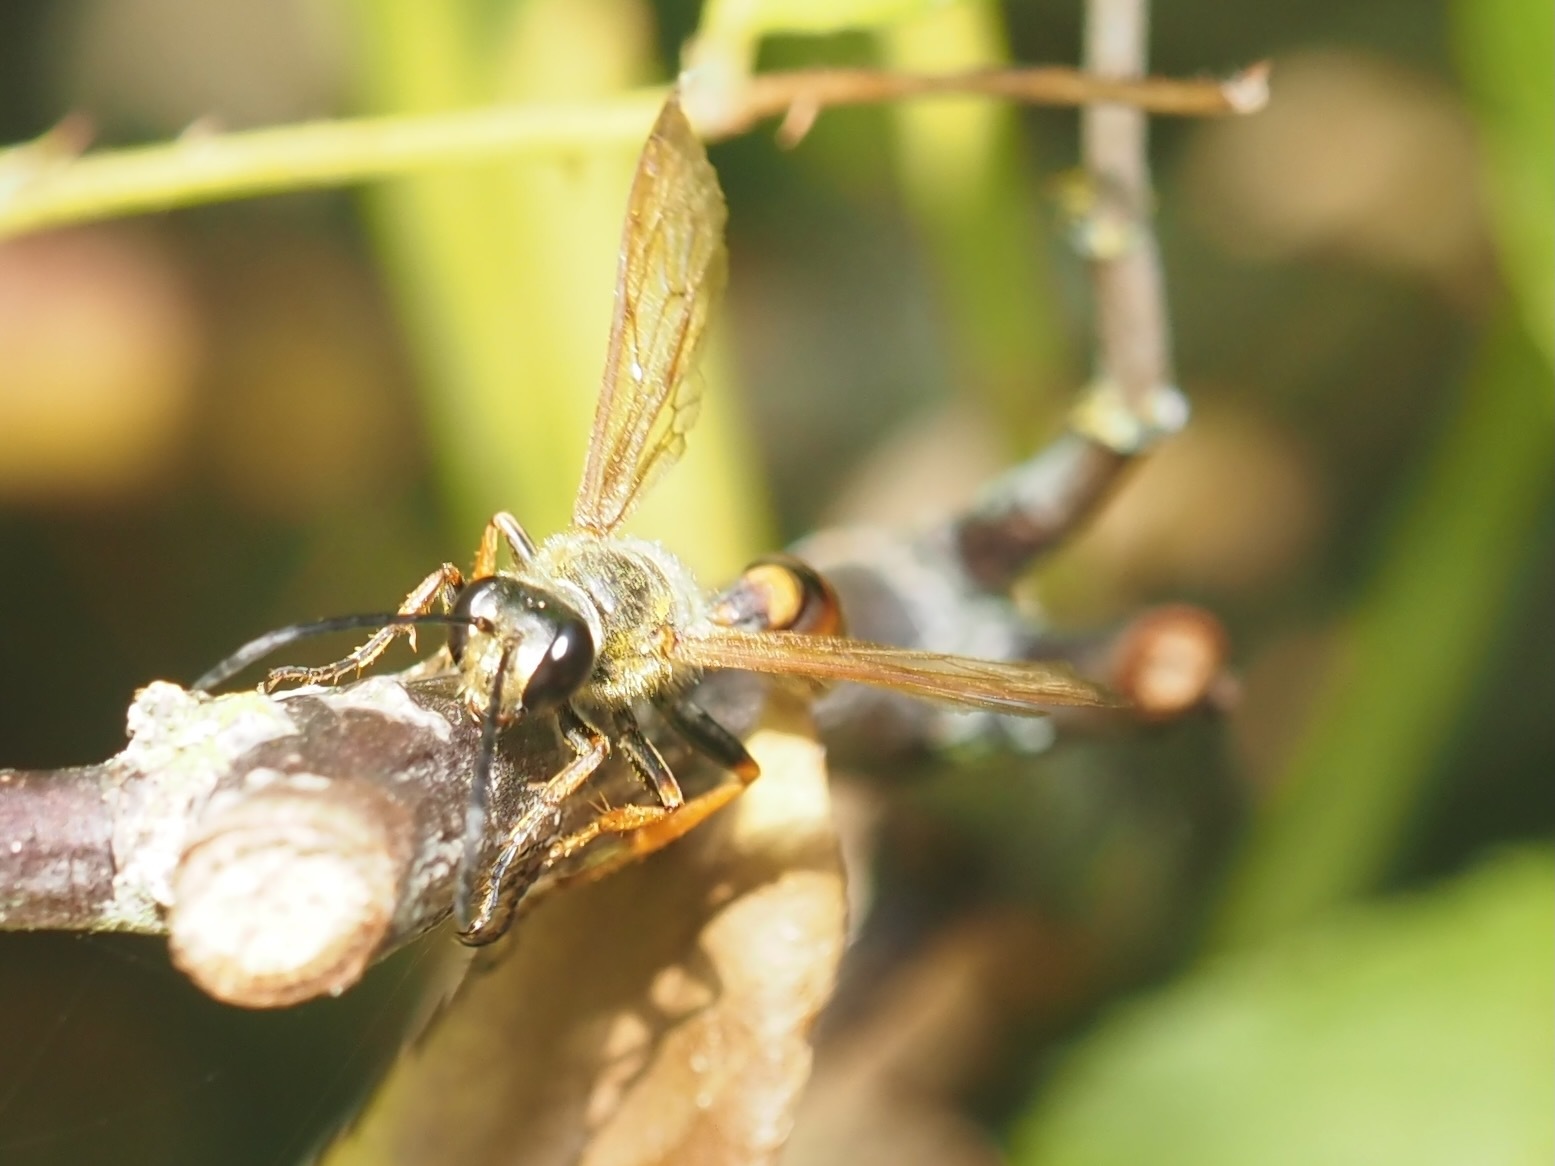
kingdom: Animalia
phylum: Arthropoda
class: Insecta
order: Hymenoptera
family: Sphecidae
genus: Isodontia
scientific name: Isodontia elegans
